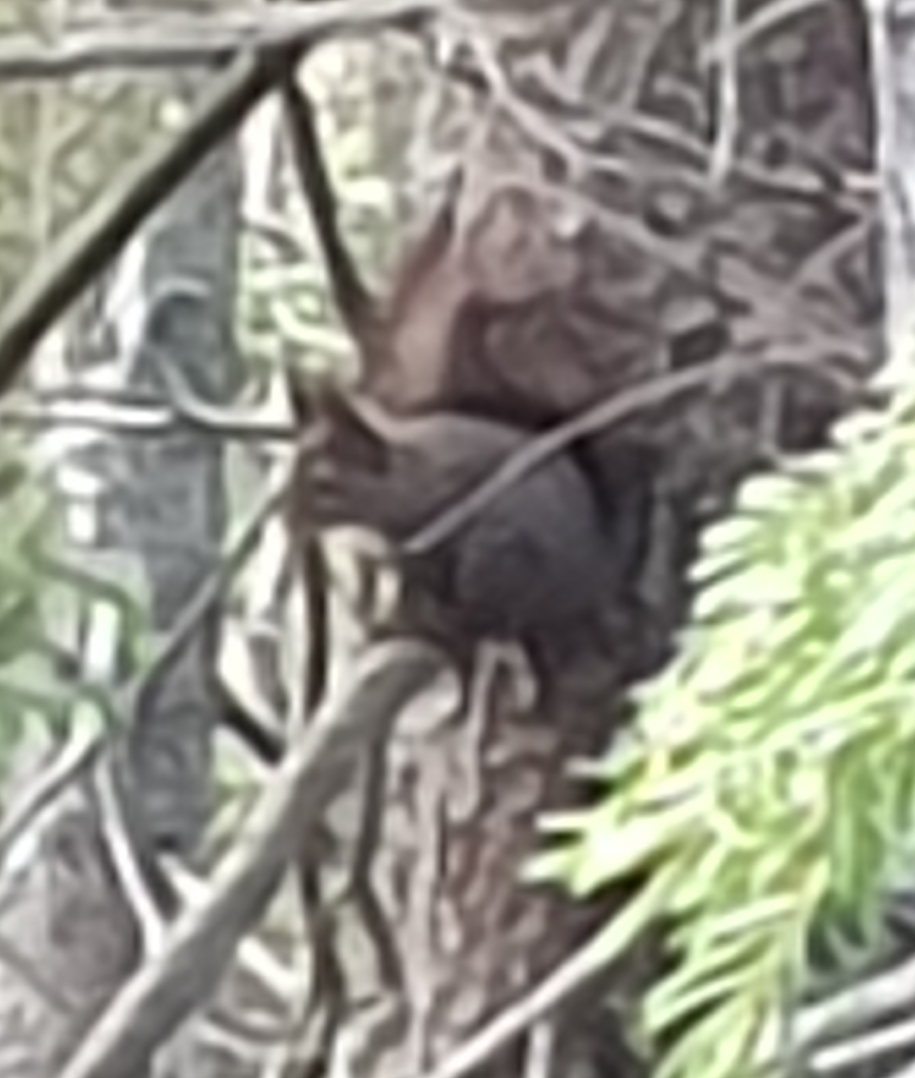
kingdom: Animalia
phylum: Chordata
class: Mammalia
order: Rodentia
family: Sciuridae
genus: Sciurus
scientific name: Sciurus vulgaris
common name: Eurasian red squirrel
